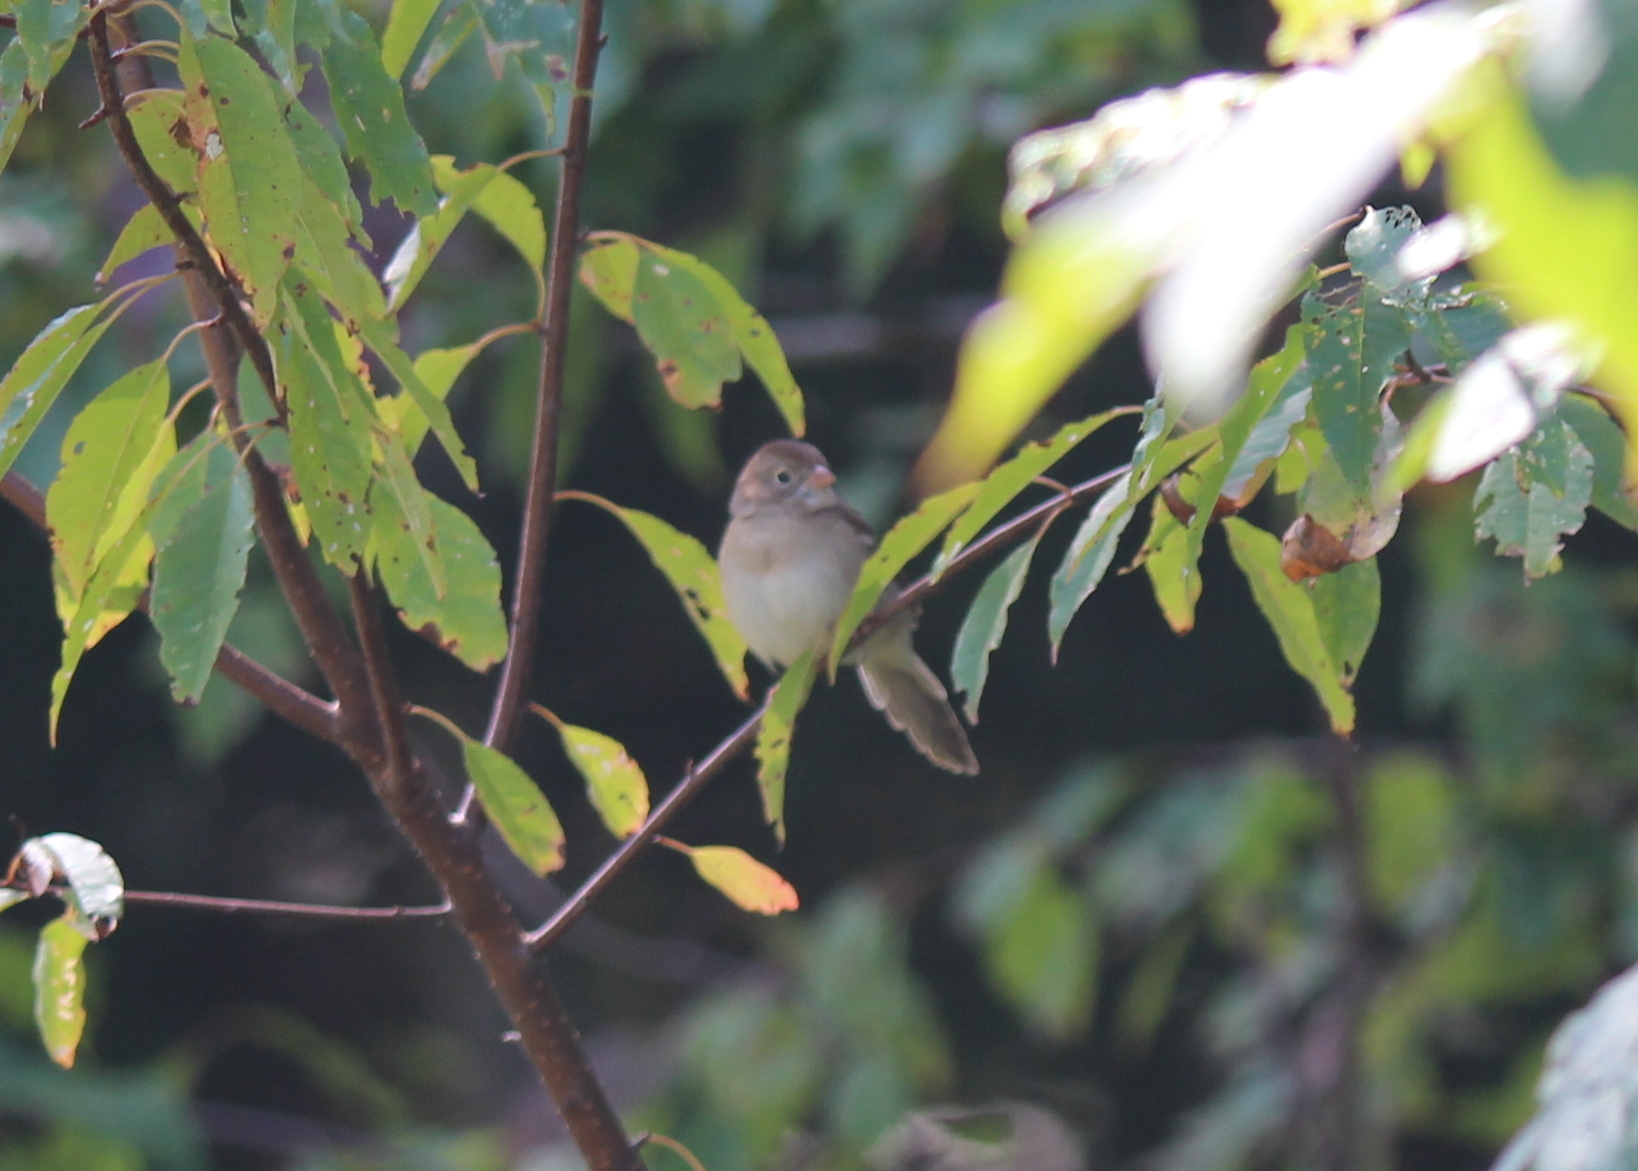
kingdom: Animalia
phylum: Chordata
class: Aves
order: Passeriformes
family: Passerellidae
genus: Spizella
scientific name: Spizella pusilla
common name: Field sparrow
